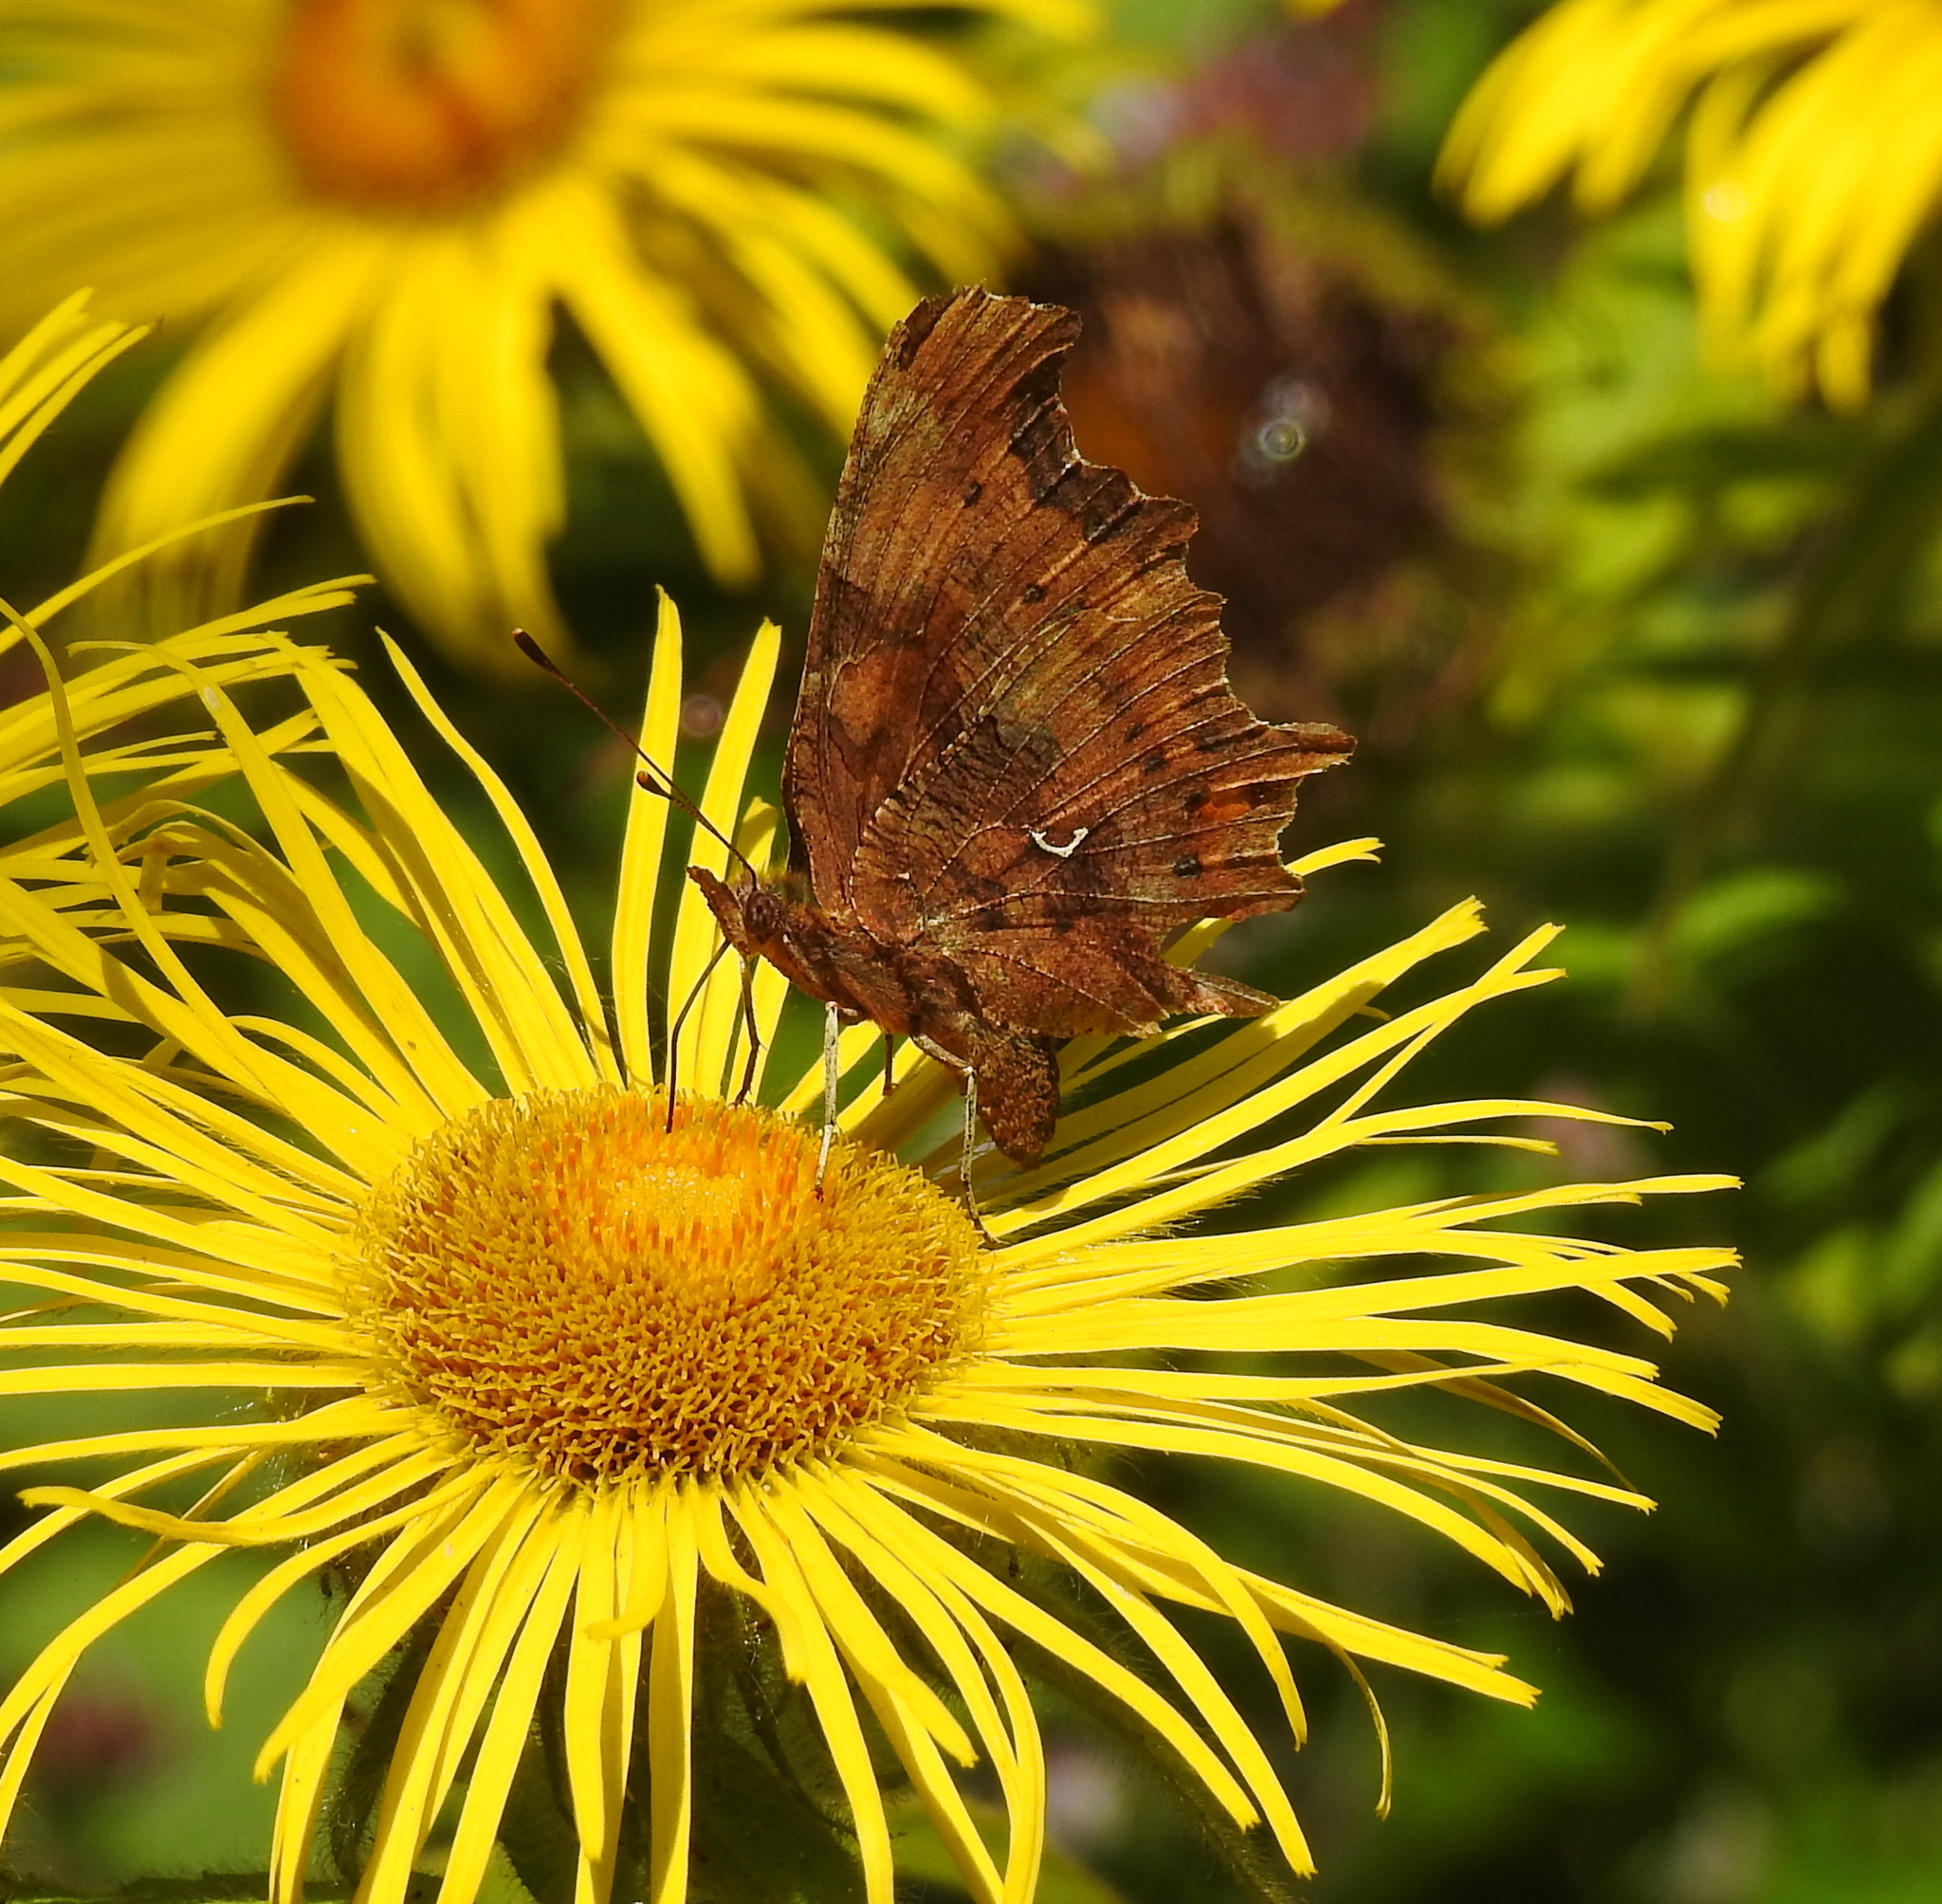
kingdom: Animalia
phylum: Arthropoda
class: Insecta
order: Lepidoptera
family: Nymphalidae
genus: Polygonia
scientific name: Polygonia c-album
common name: Comma
